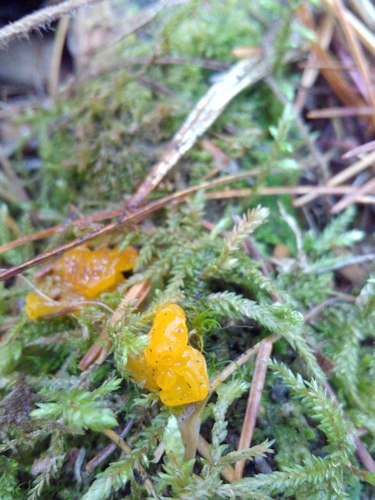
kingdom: Fungi
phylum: Basidiomycota
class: Agaricomycetes
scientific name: Agaricomycetes
